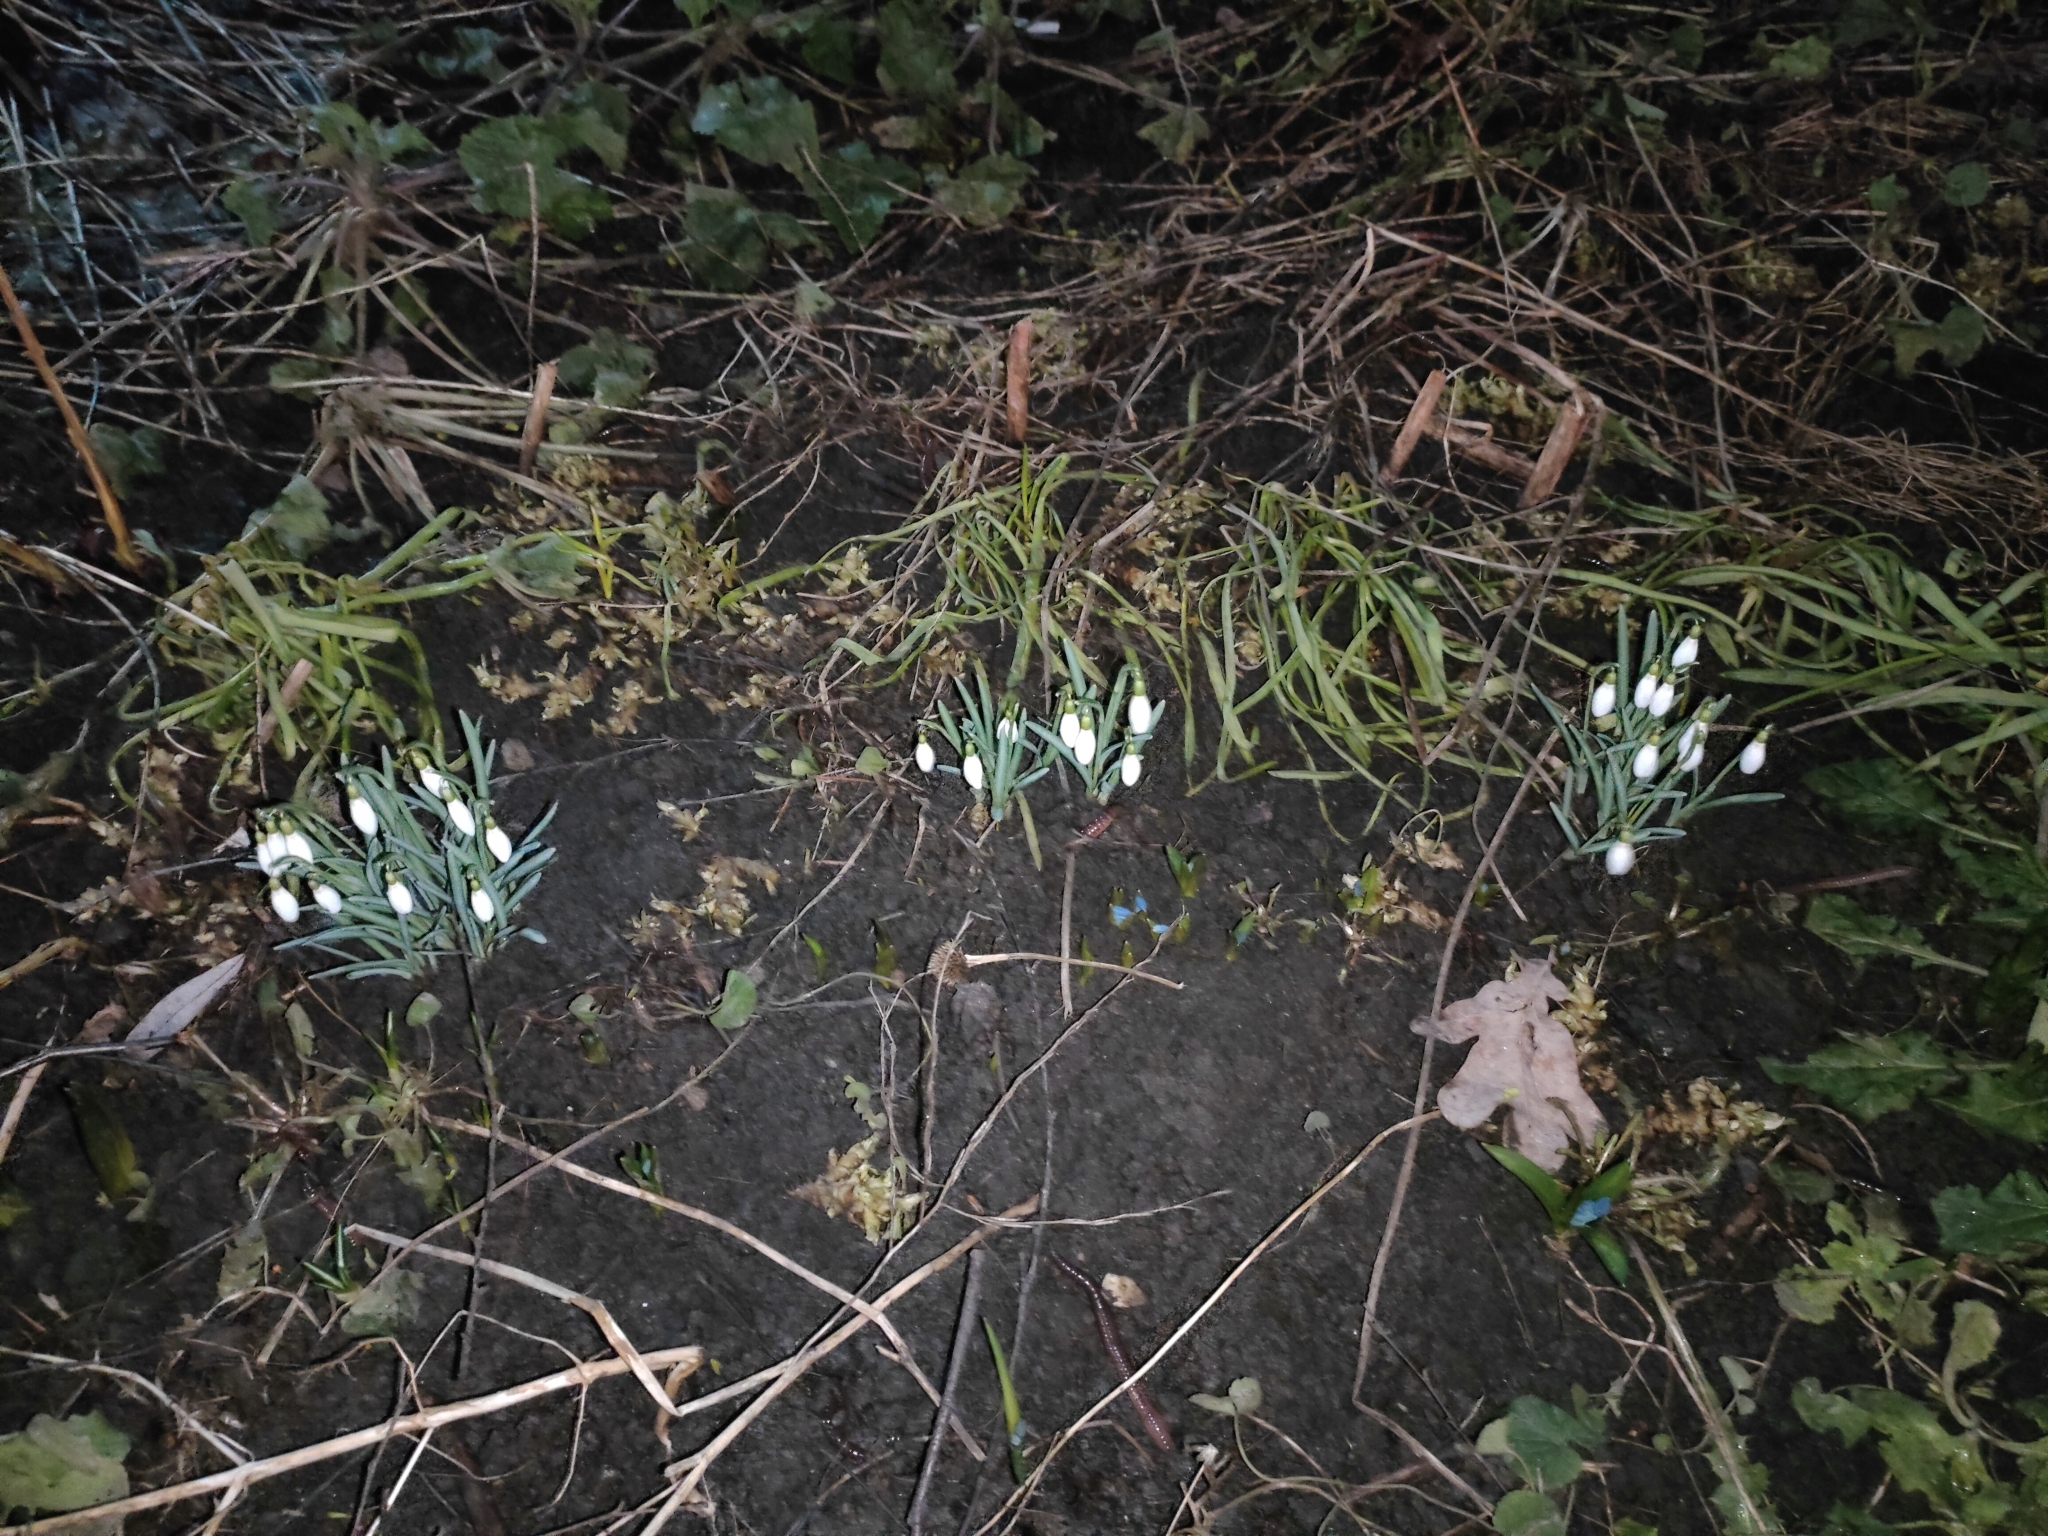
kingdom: Plantae
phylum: Tracheophyta
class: Liliopsida
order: Asparagales
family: Amaryllidaceae
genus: Galanthus
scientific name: Galanthus nivalis
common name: Snowdrop
